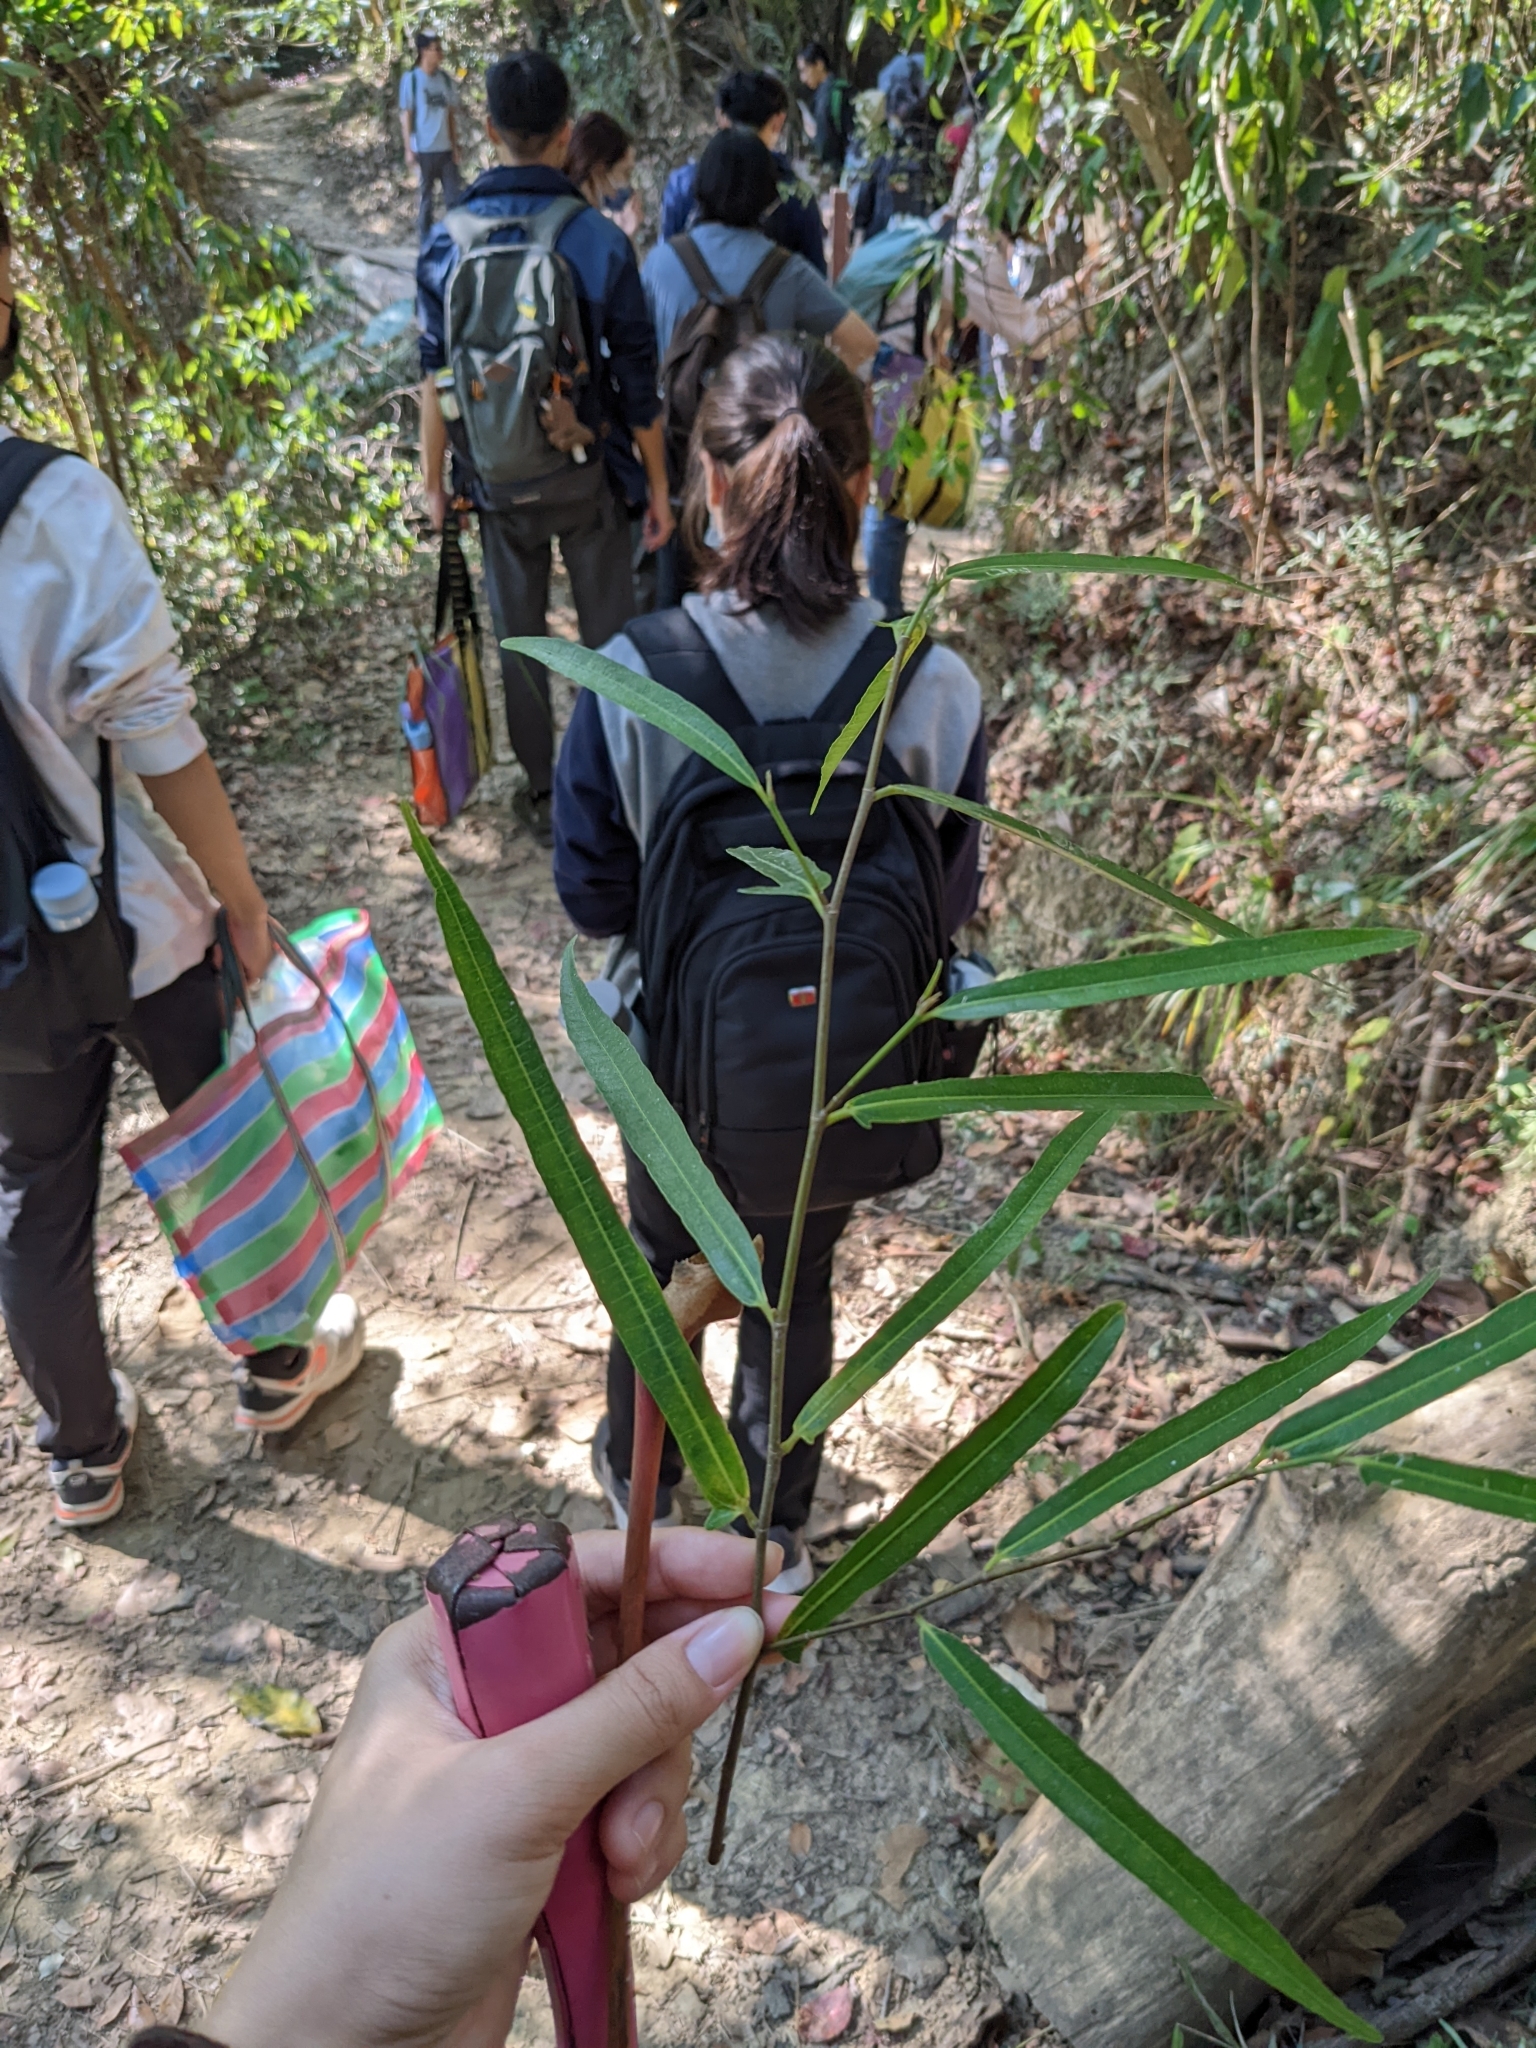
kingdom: Plantae
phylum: Tracheophyta
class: Magnoliopsida
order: Rosales
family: Moraceae
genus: Ficus
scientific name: Ficus ampelos
